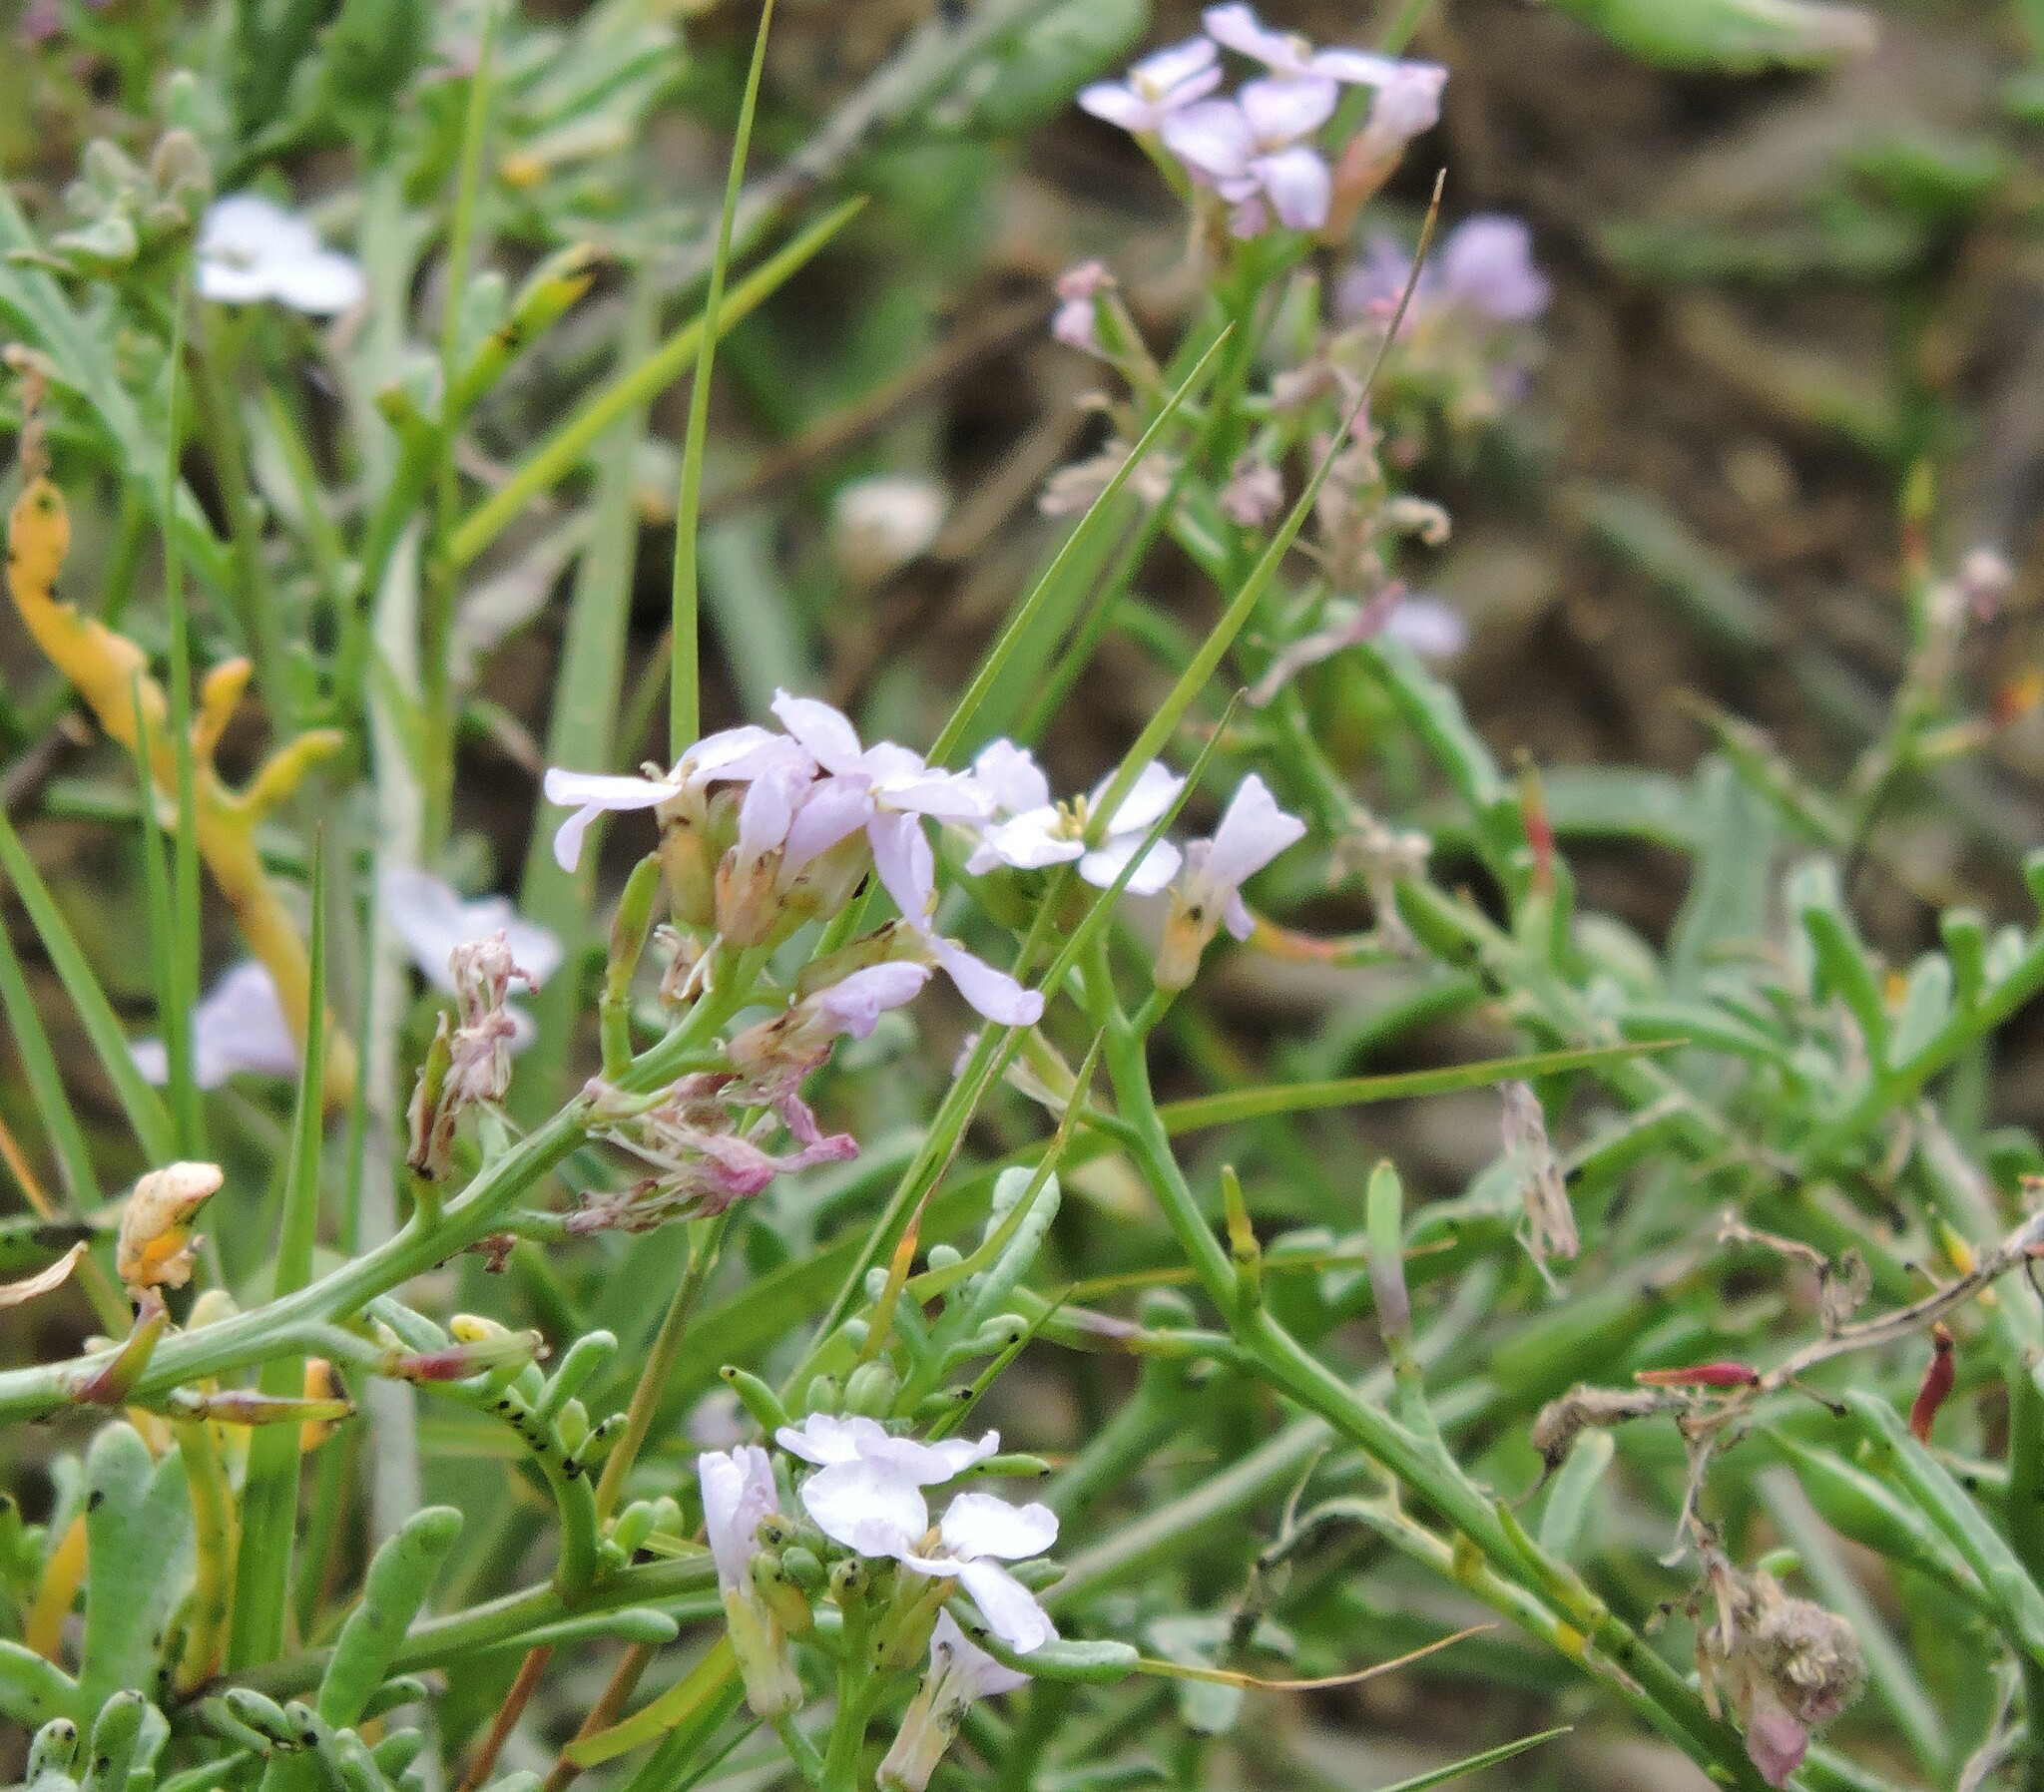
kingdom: Plantae
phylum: Tracheophyta
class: Magnoliopsida
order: Brassicales
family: Brassicaceae
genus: Cakile
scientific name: Cakile maritima
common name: Sea rocket
